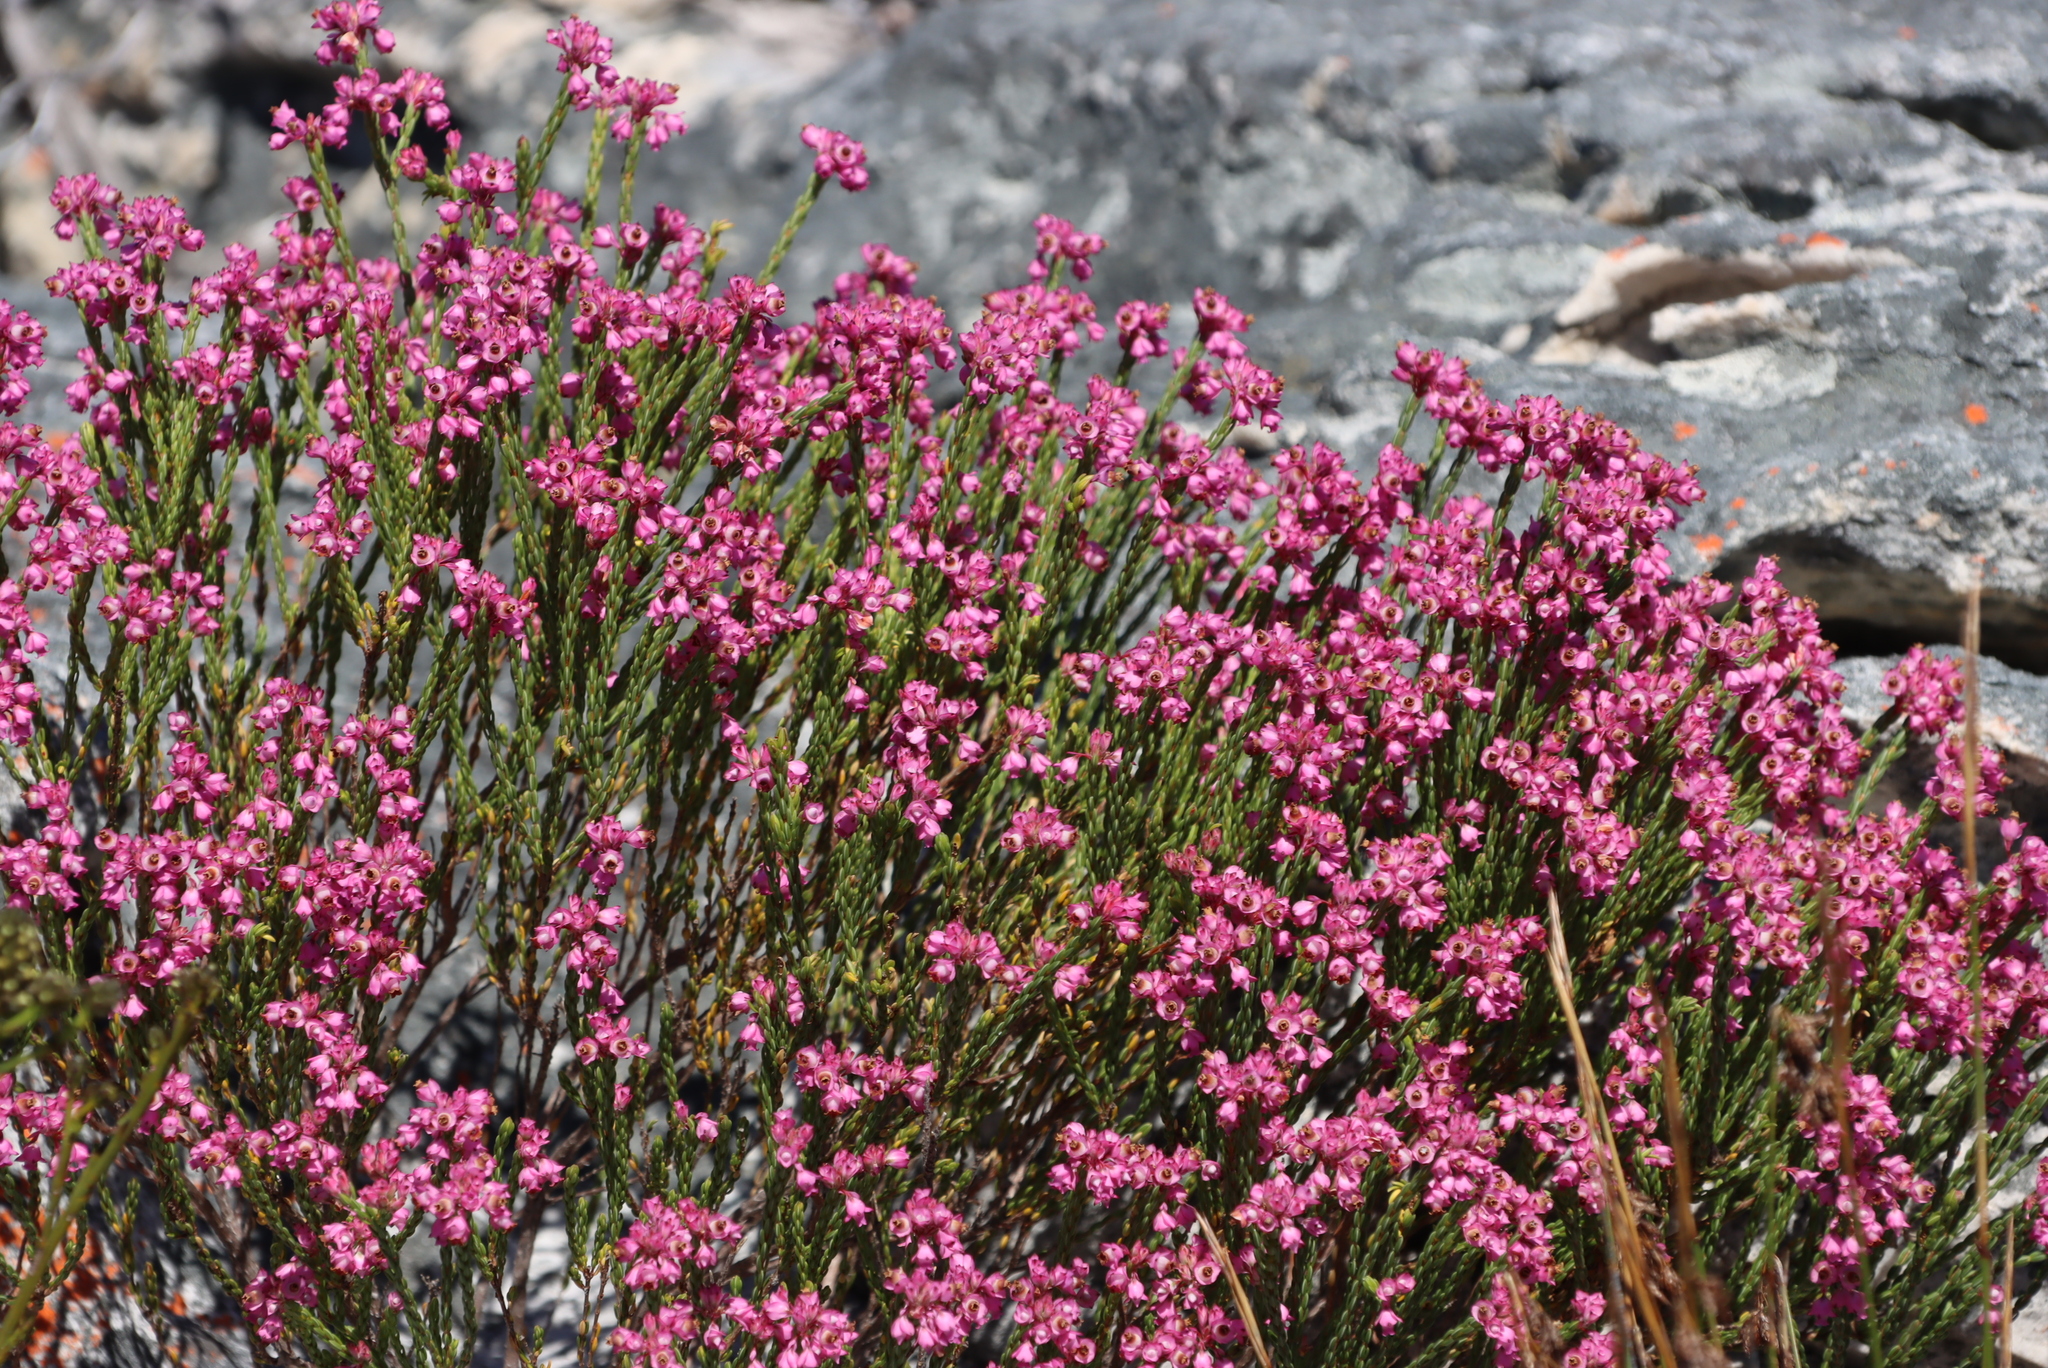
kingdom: Plantae
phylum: Tracheophyta
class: Magnoliopsida
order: Ericales
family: Ericaceae
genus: Erica
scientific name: Erica corifolia
